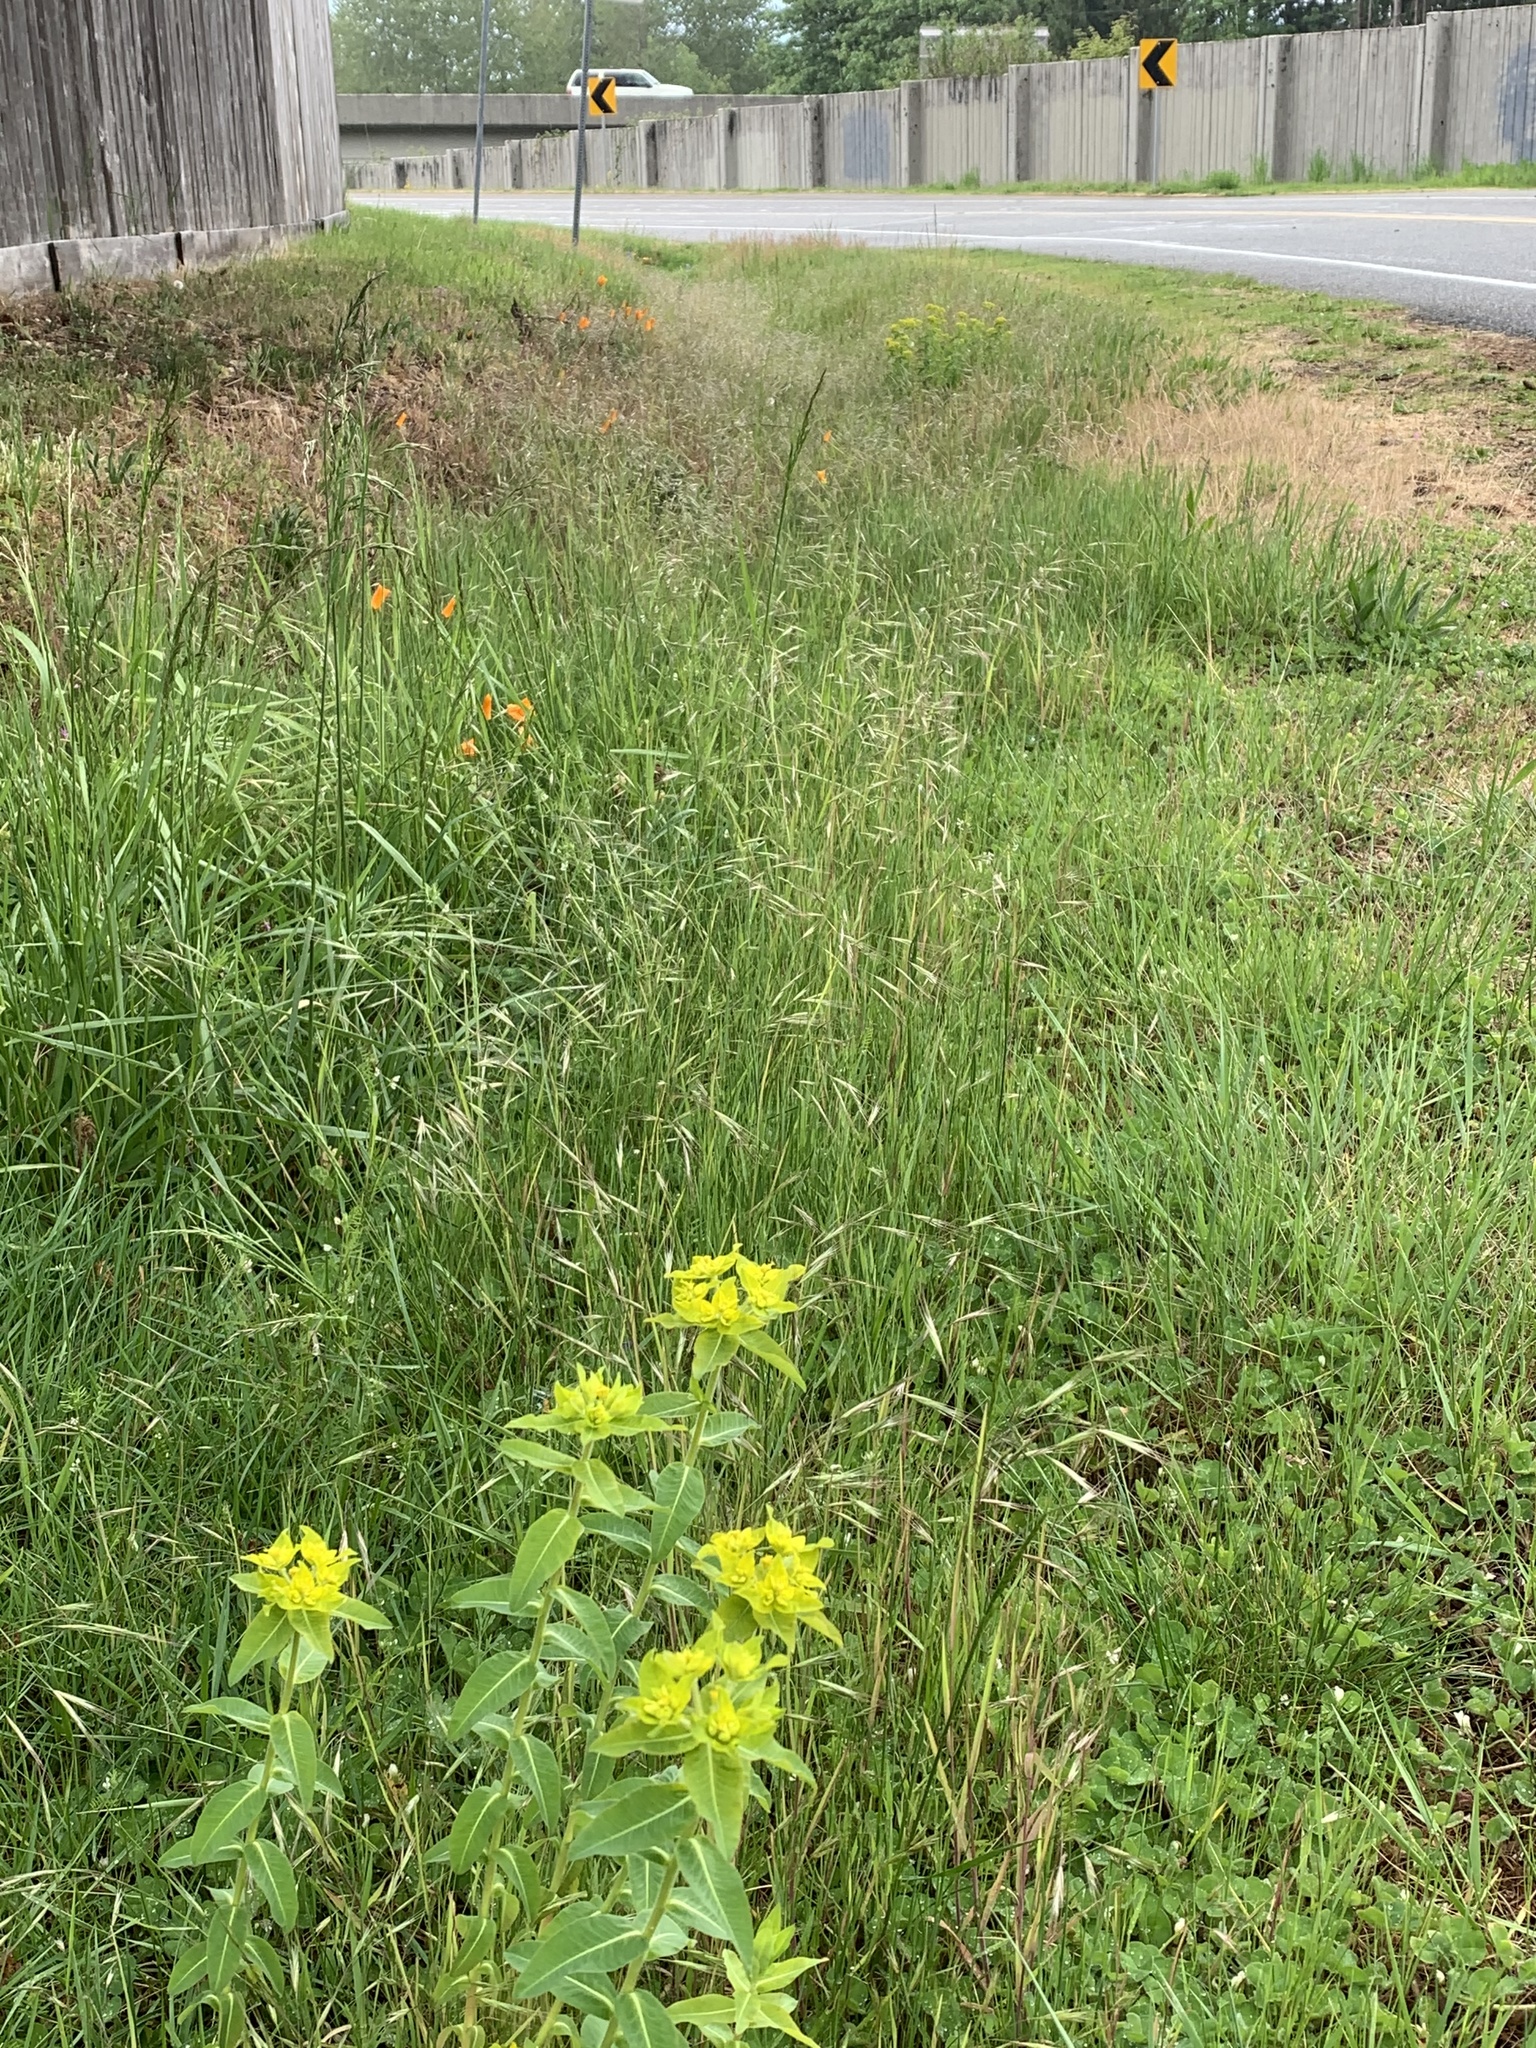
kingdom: Plantae
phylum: Tracheophyta
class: Magnoliopsida
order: Malpighiales
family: Euphorbiaceae
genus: Euphorbia
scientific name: Euphorbia oblongata
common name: Balkan spurge
